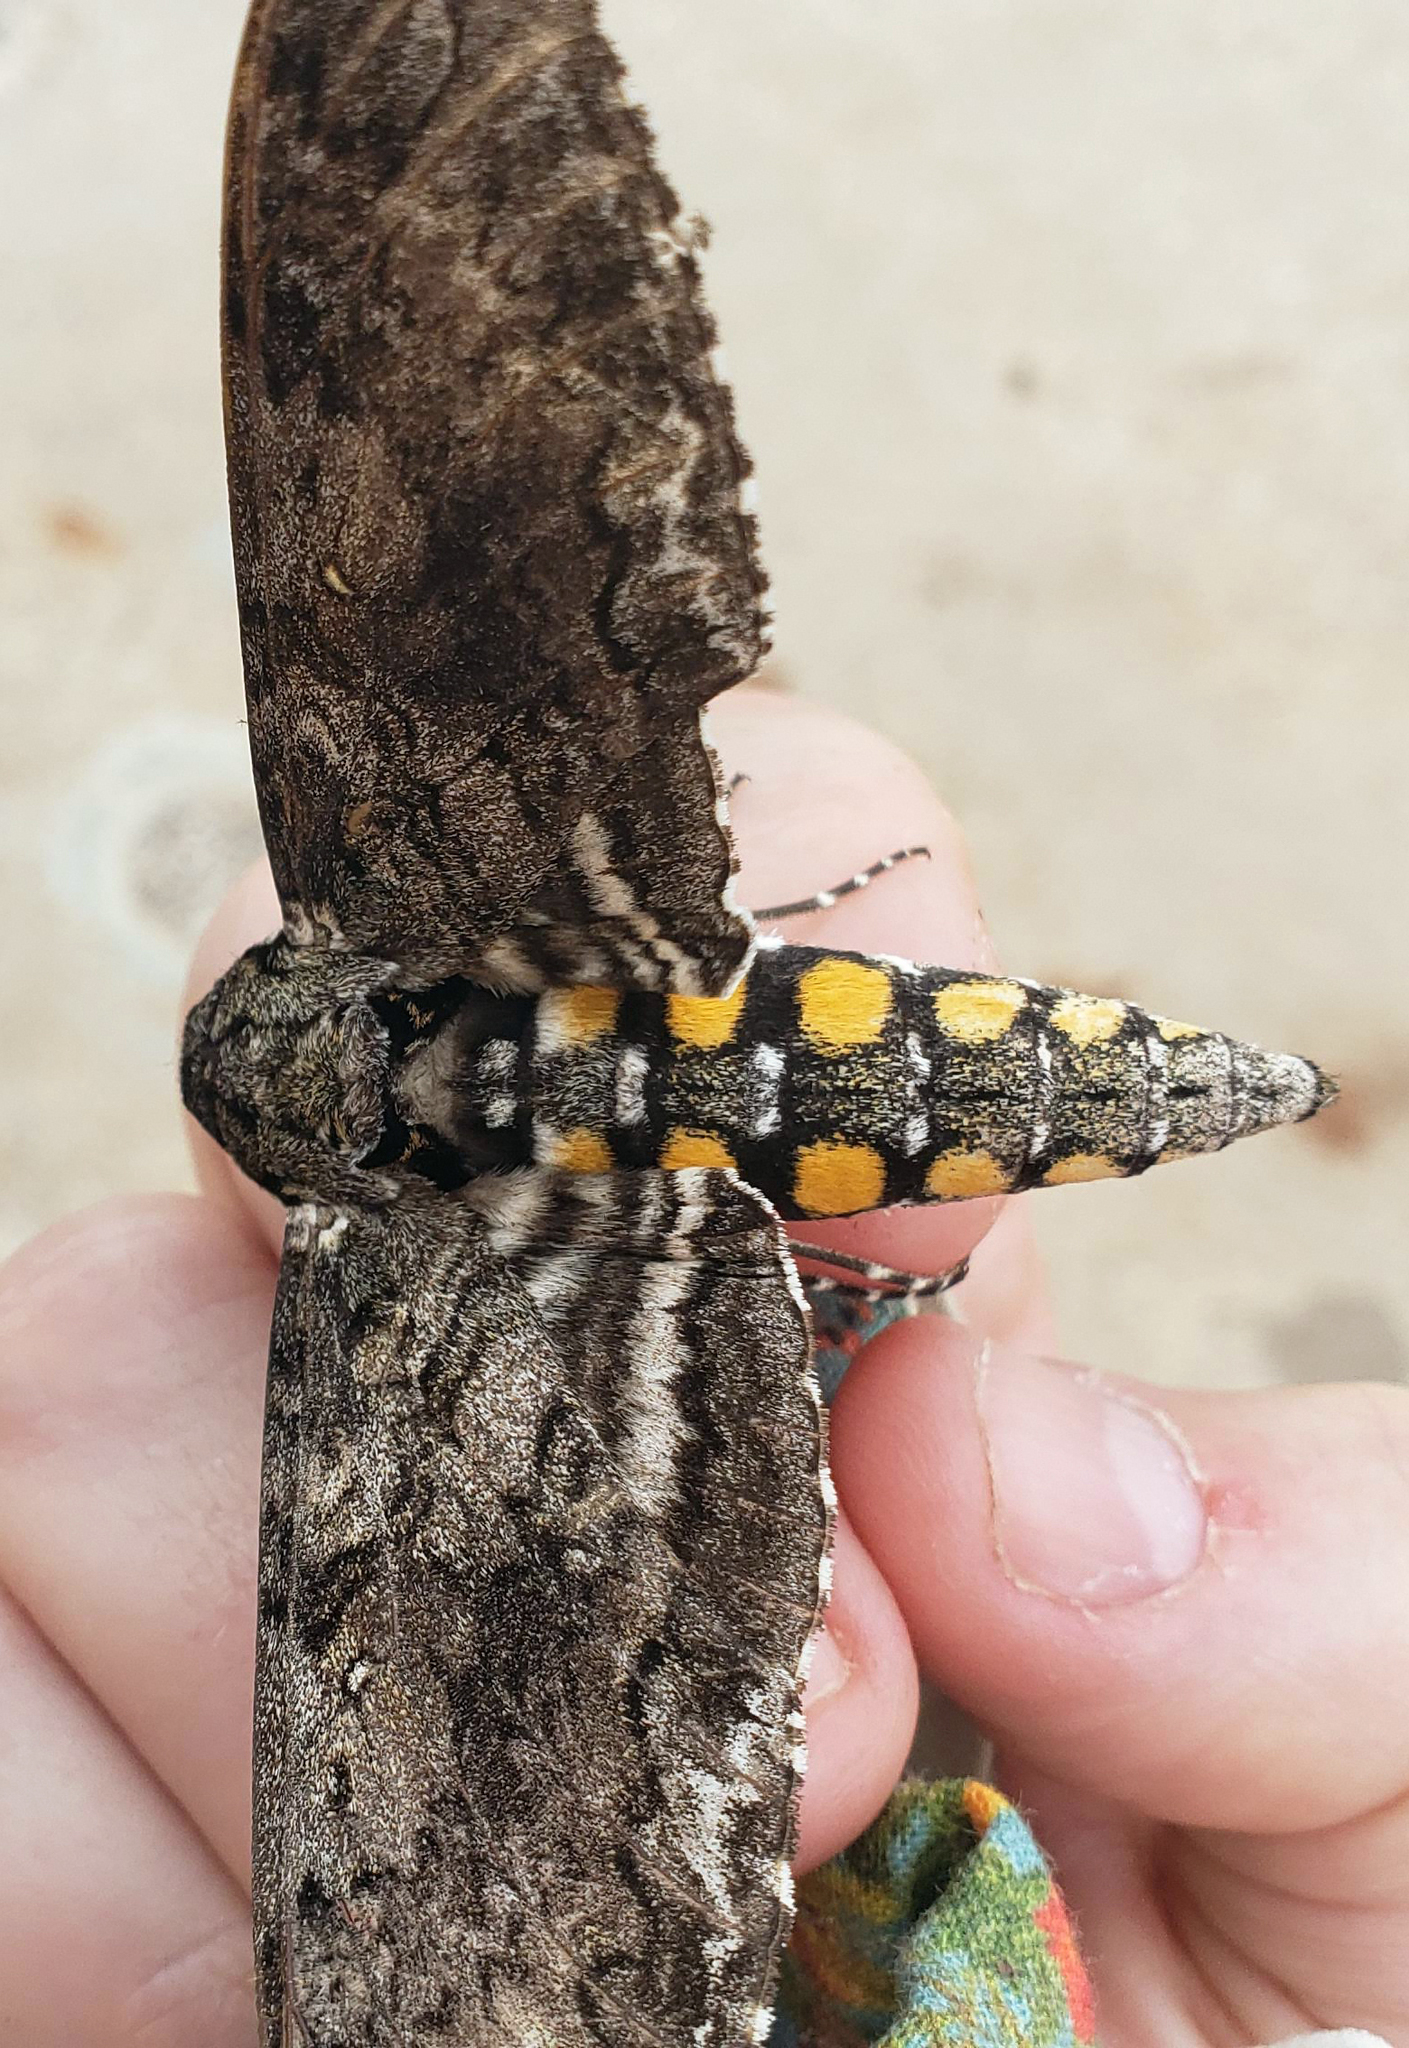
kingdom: Animalia
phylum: Arthropoda
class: Insecta
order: Lepidoptera
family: Sphingidae
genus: Manduca
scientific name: Manduca sexta
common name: Carolina sphinx
